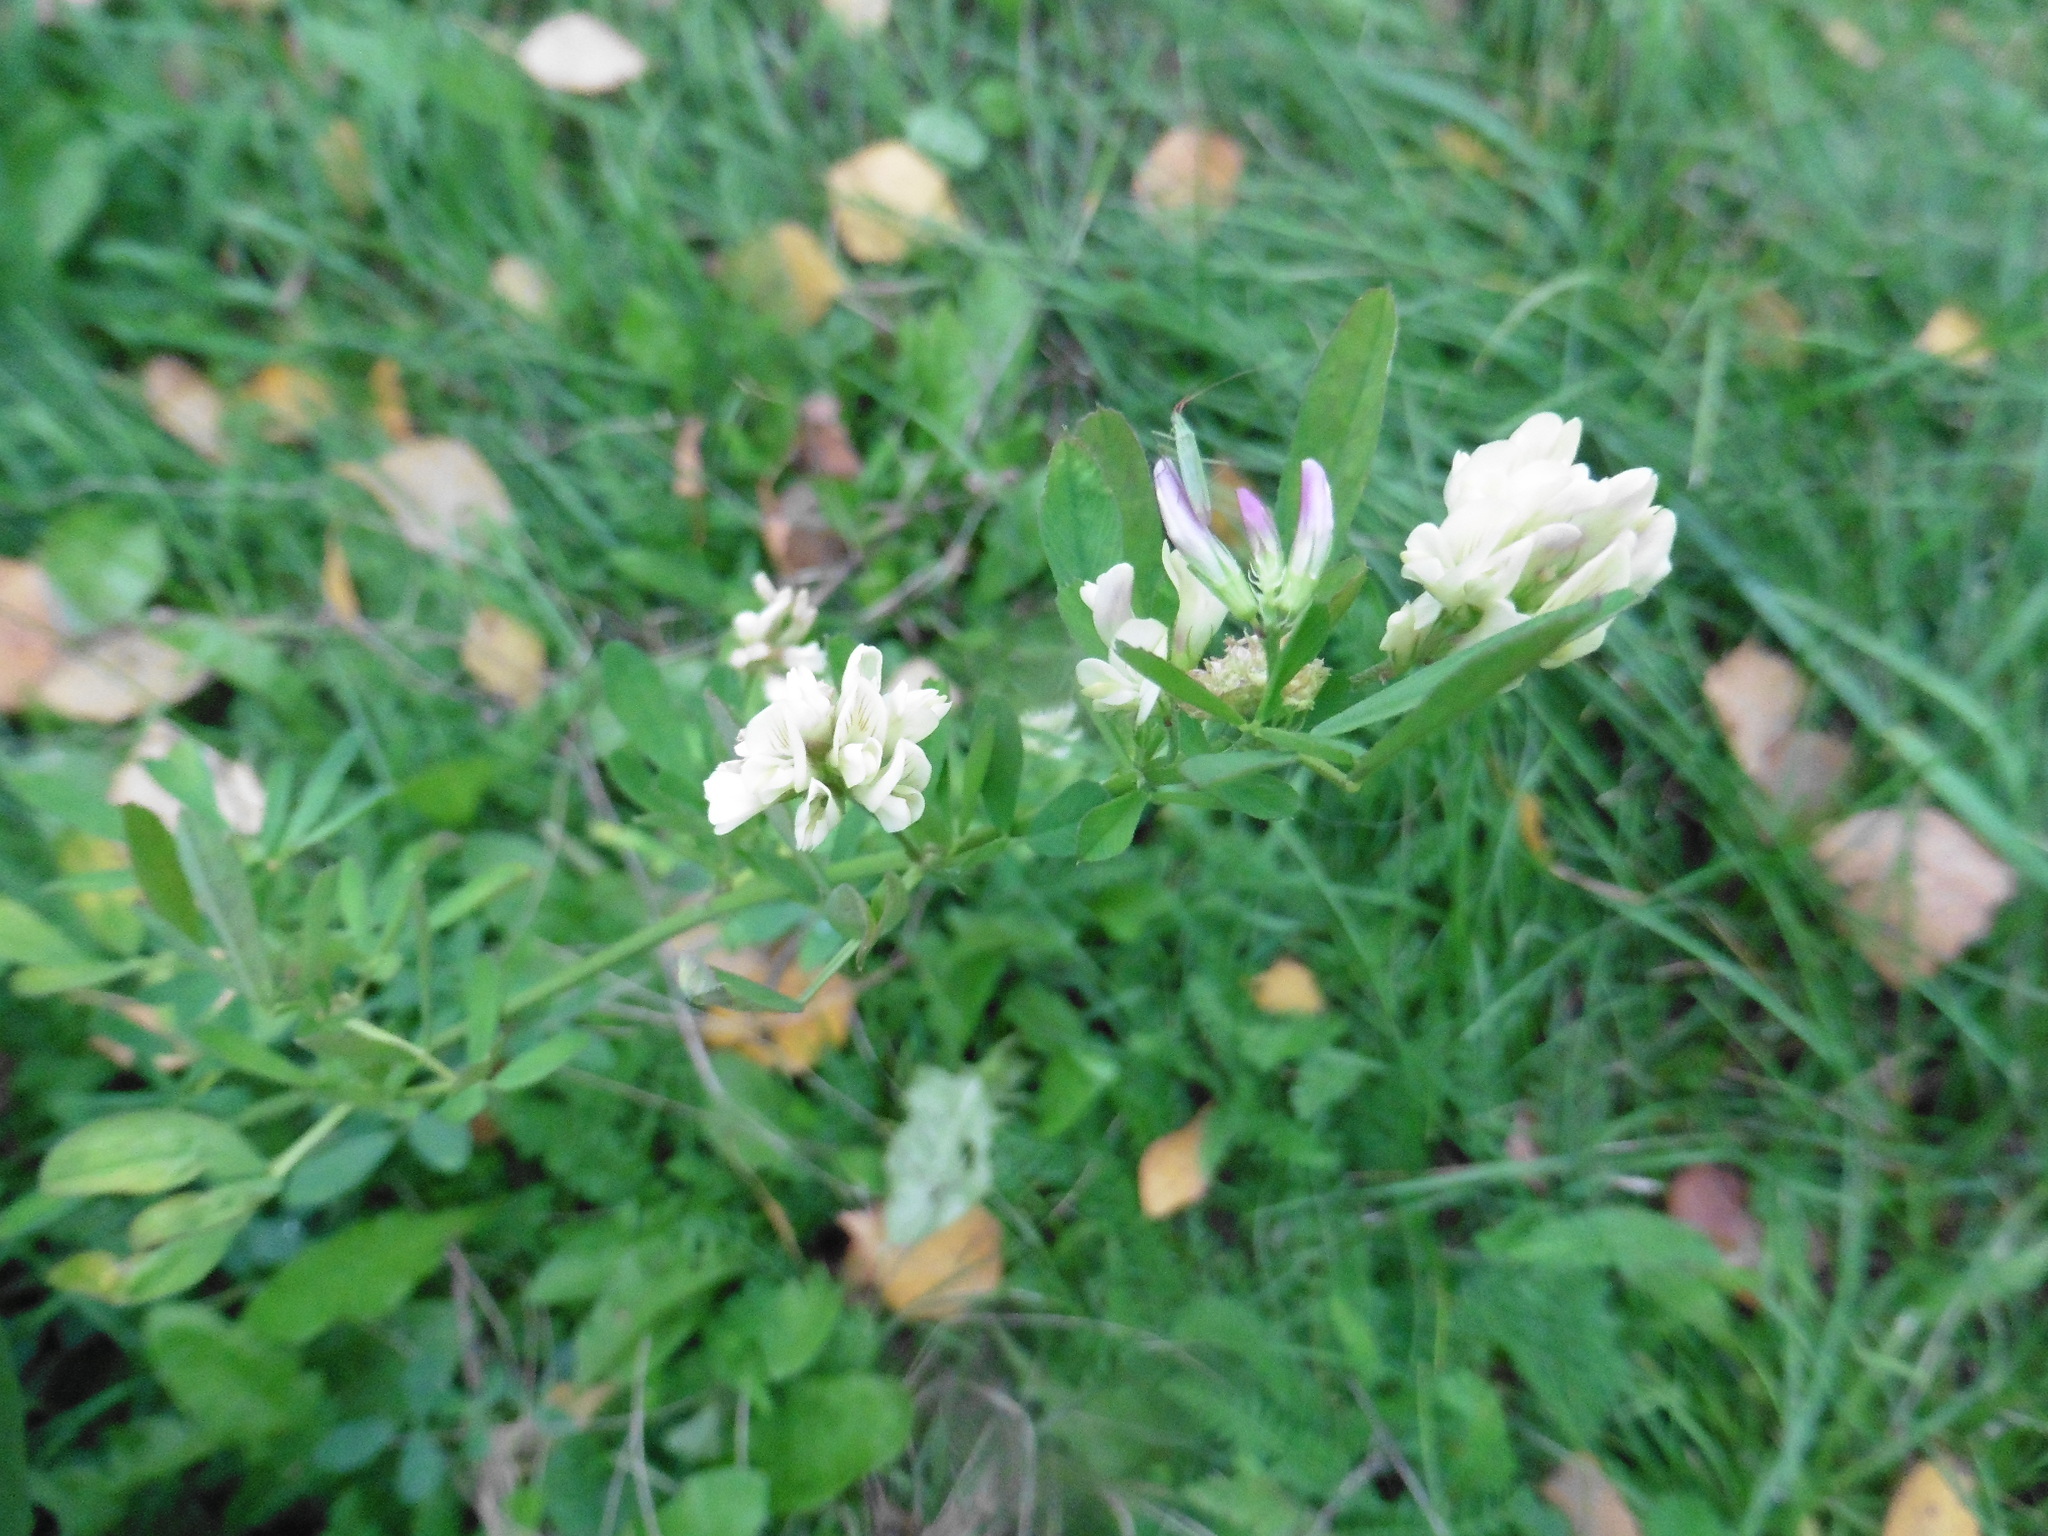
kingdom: Plantae
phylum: Tracheophyta
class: Magnoliopsida
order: Fabales
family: Fabaceae
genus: Medicago
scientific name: Medicago varia
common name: Sand lucerne
